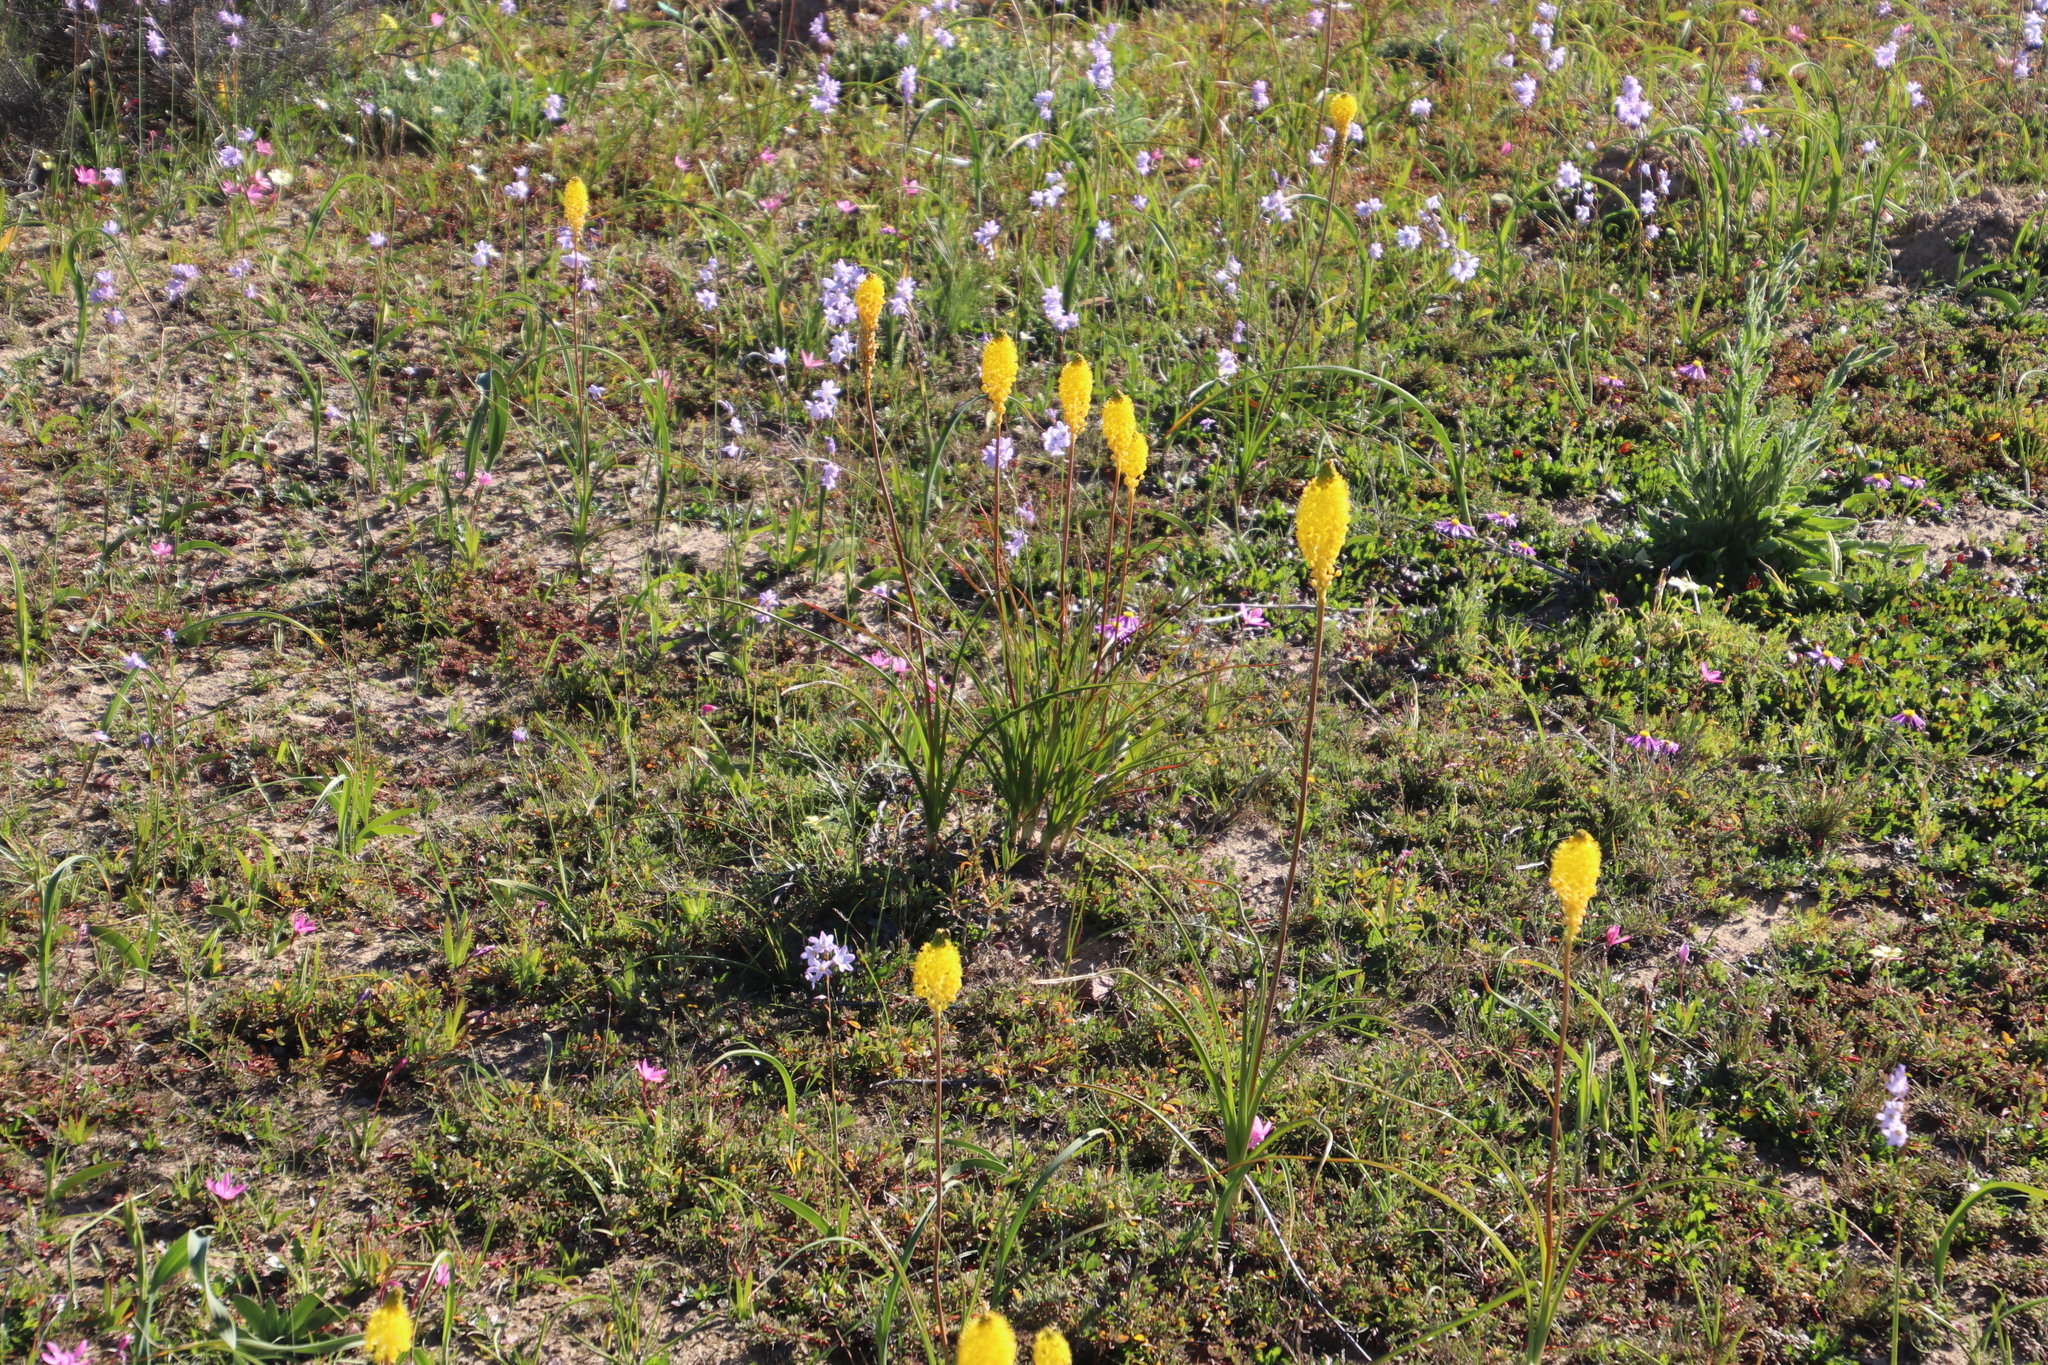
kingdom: Plantae
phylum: Tracheophyta
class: Liliopsida
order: Asparagales
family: Asphodelaceae
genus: Bulbinella
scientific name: Bulbinella nutans
